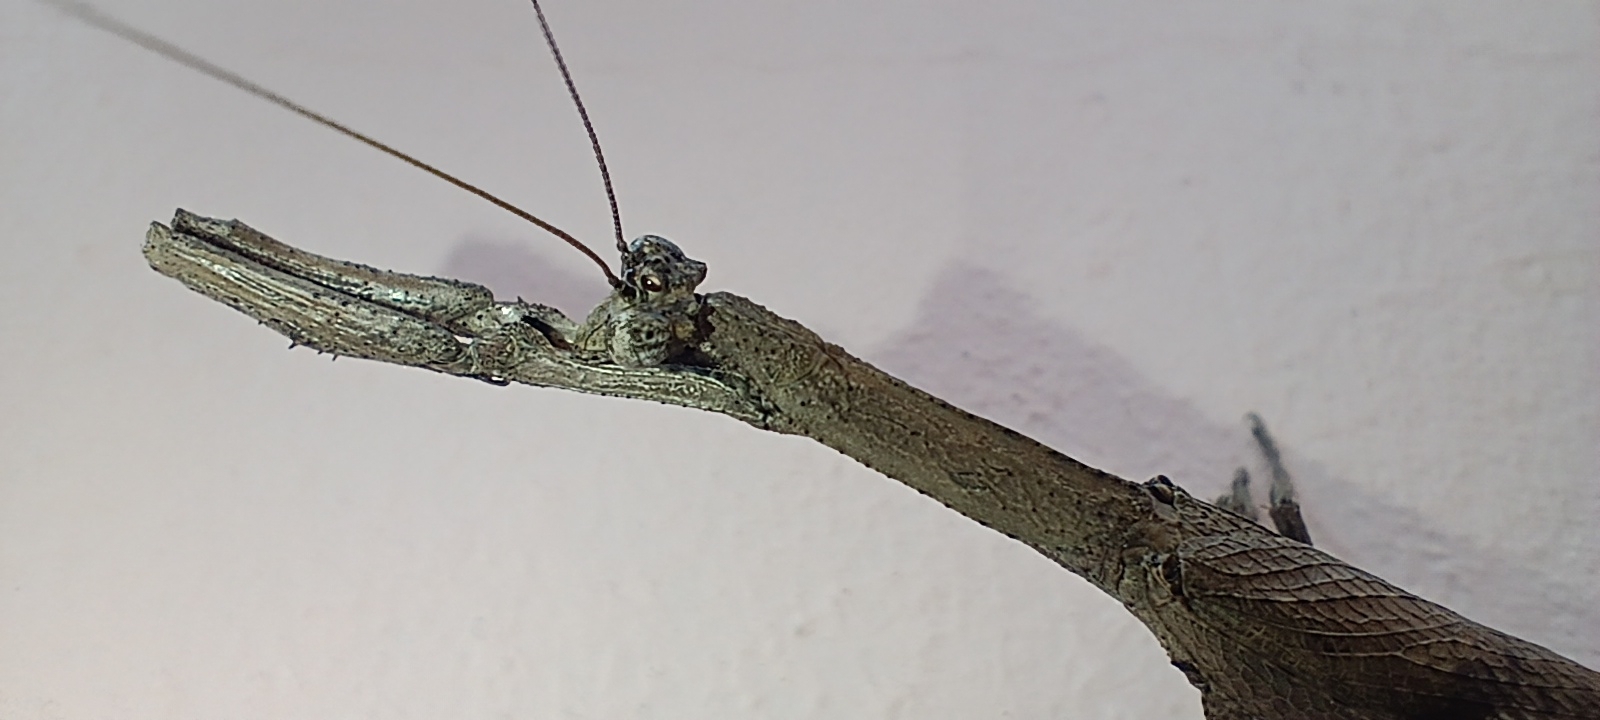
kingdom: Animalia
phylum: Arthropoda
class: Insecta
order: Mantodea
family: Deroplatyidae
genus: Popa
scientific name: Popa spurca
